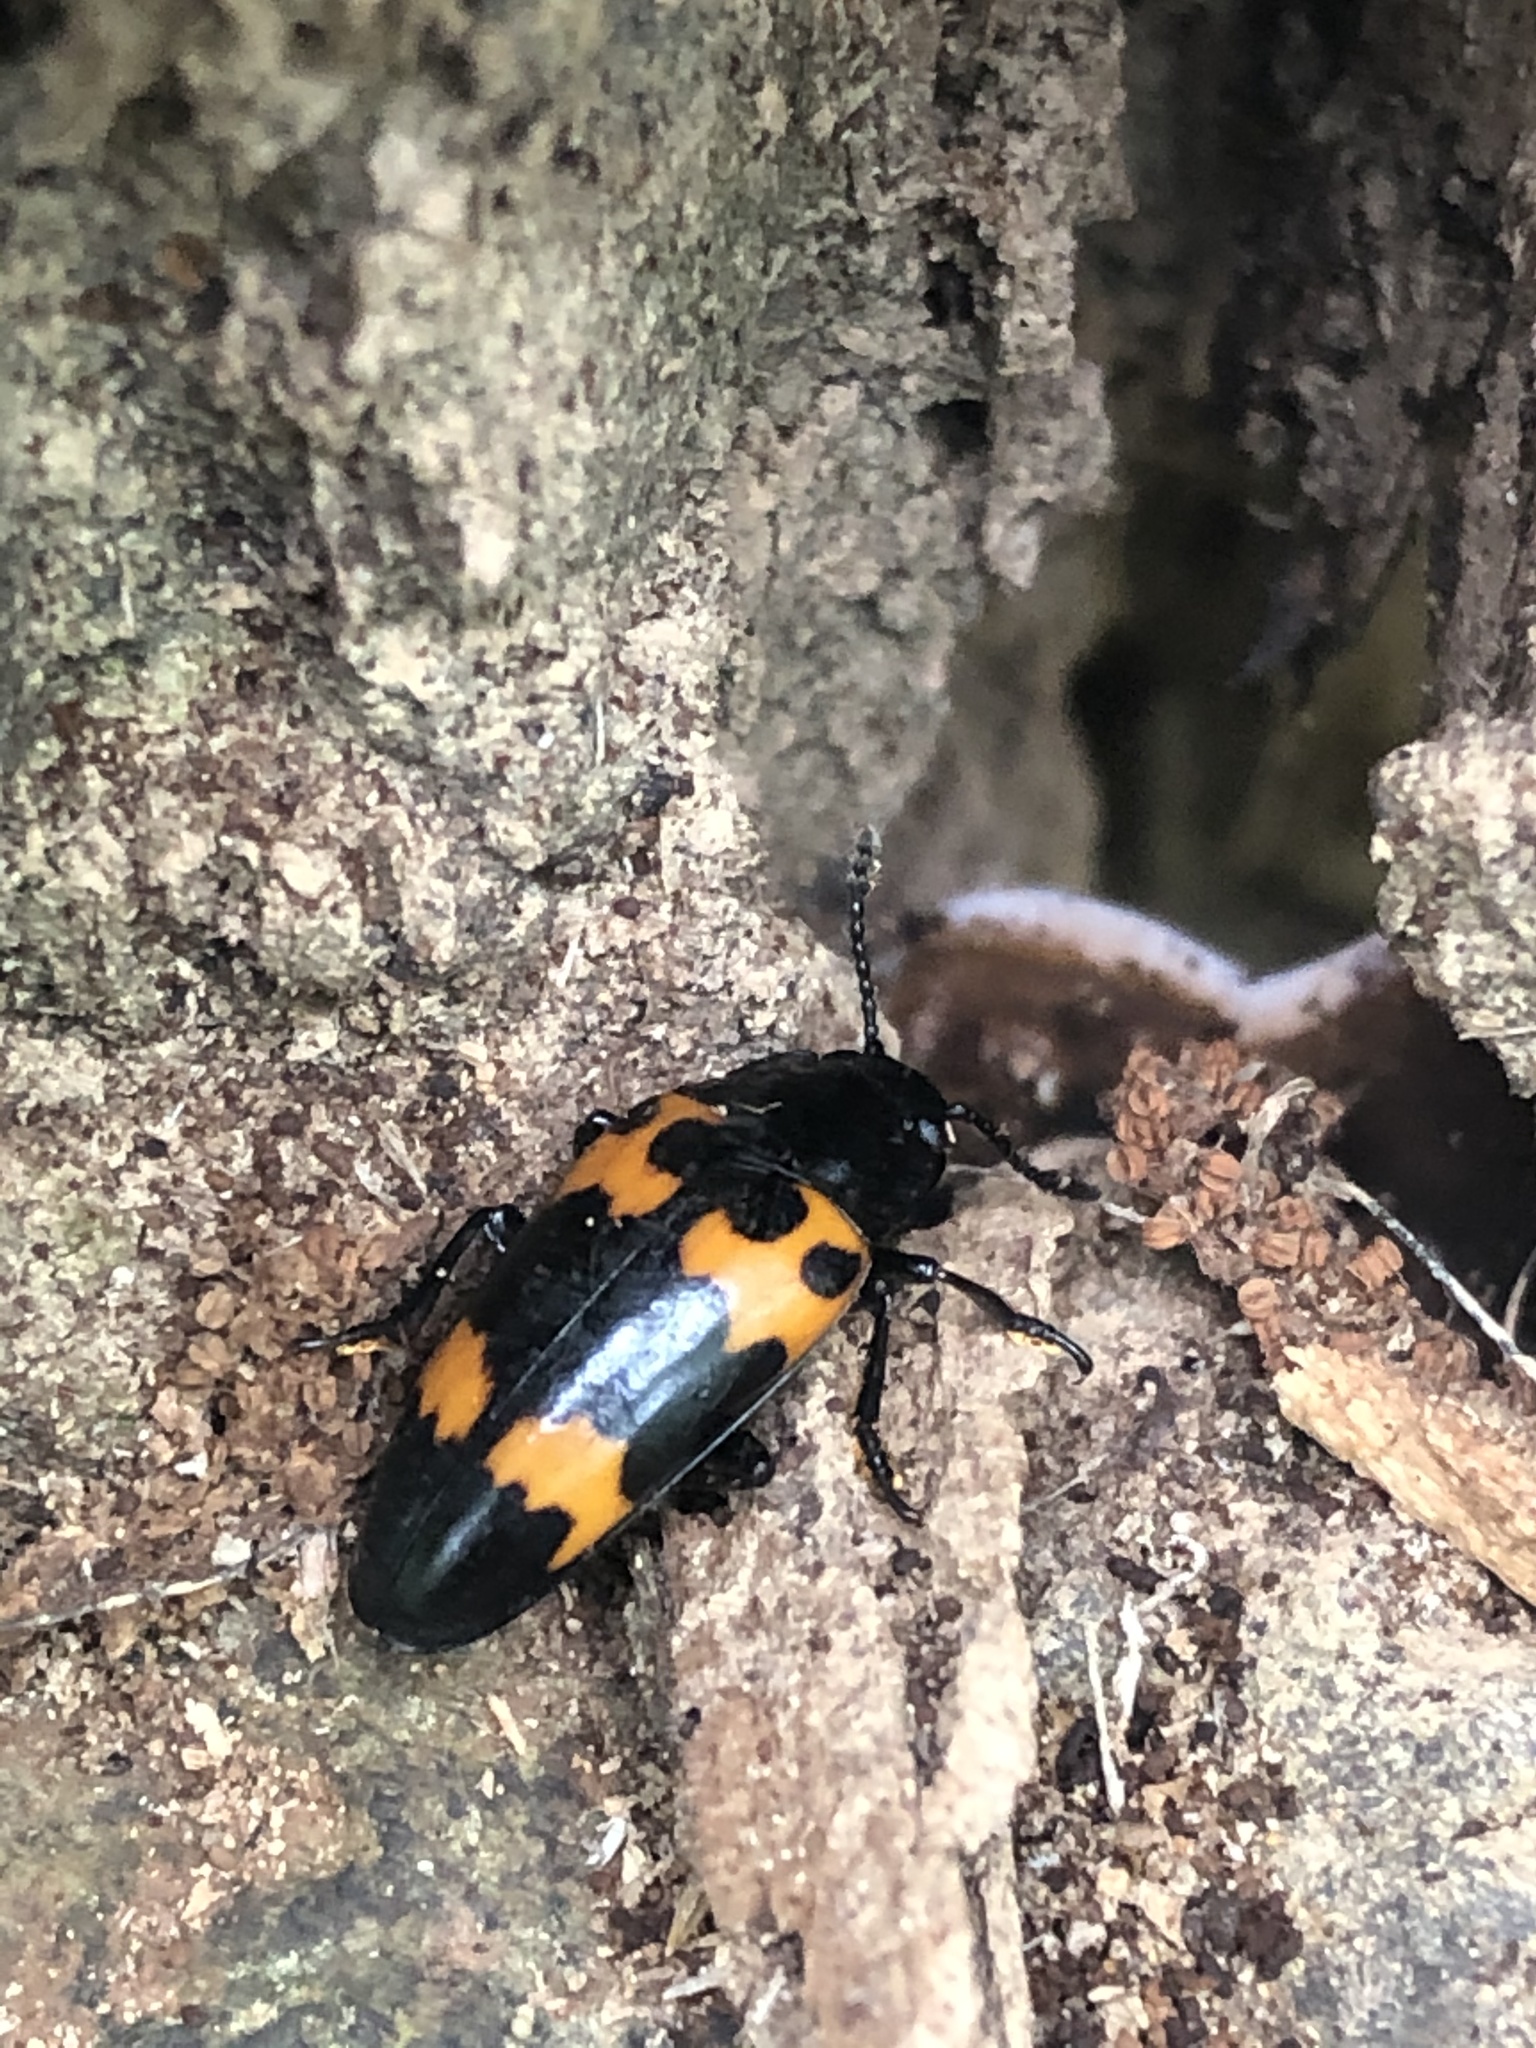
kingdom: Animalia
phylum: Arthropoda
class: Insecta
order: Coleoptera
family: Erotylidae
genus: Megalodacne
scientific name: Megalodacne heros
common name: Pleasing fungus beetle
